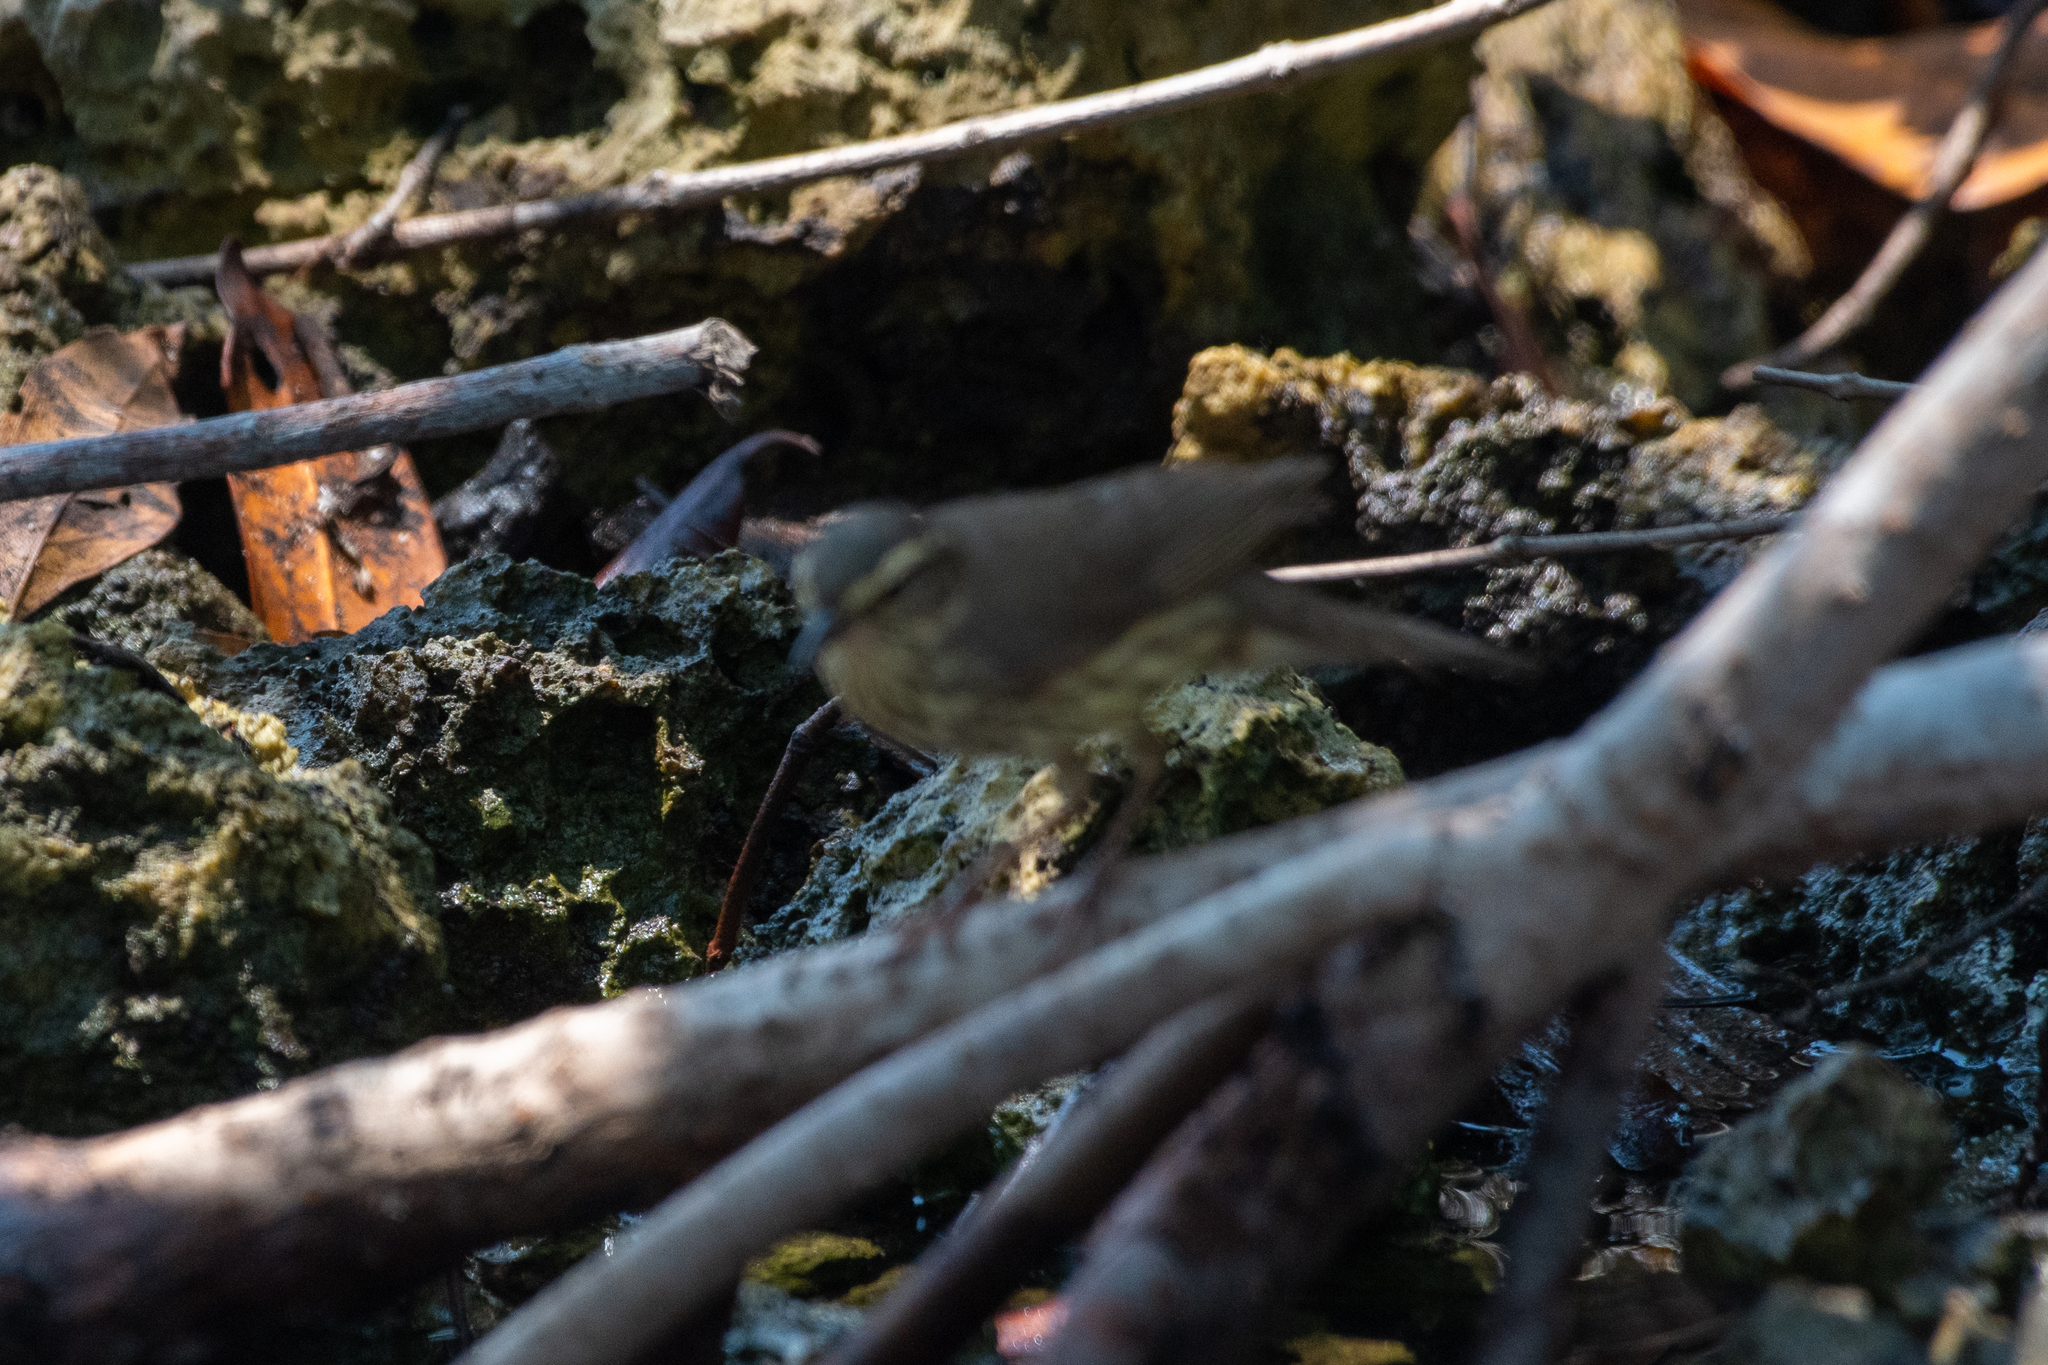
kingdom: Animalia
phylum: Chordata
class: Aves
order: Passeriformes
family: Parulidae
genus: Parkesia
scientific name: Parkesia noveboracensis
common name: Northern waterthrush
